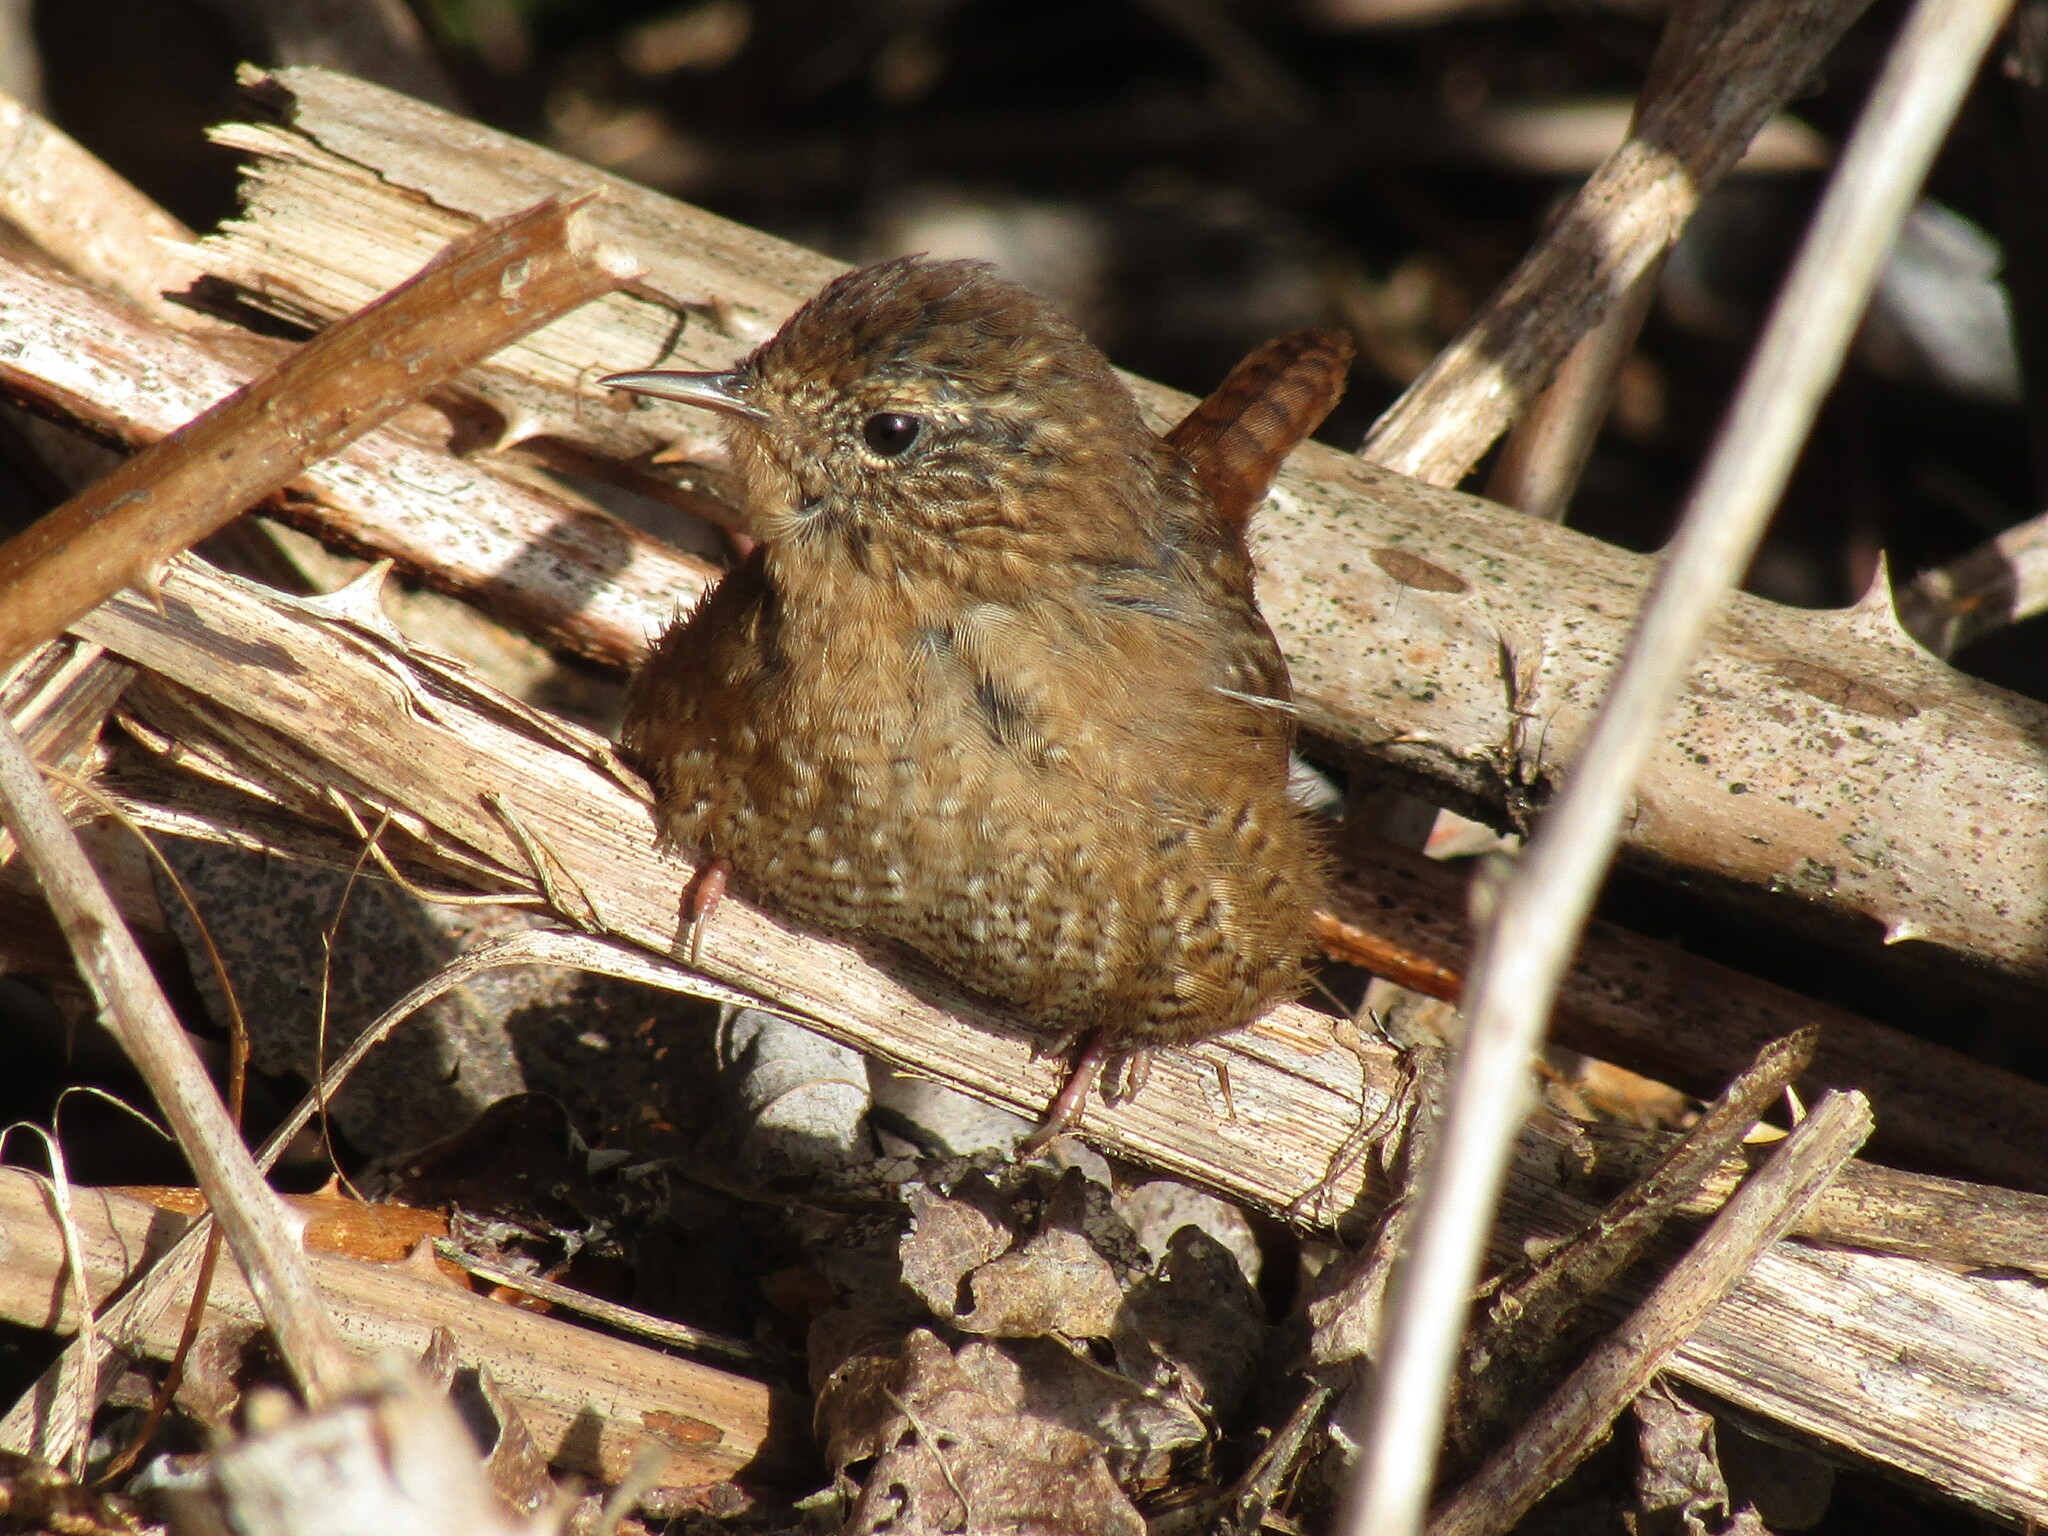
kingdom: Animalia
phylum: Chordata
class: Aves
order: Passeriformes
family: Troglodytidae
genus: Troglodytes
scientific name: Troglodytes pacificus
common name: Pacific wren
